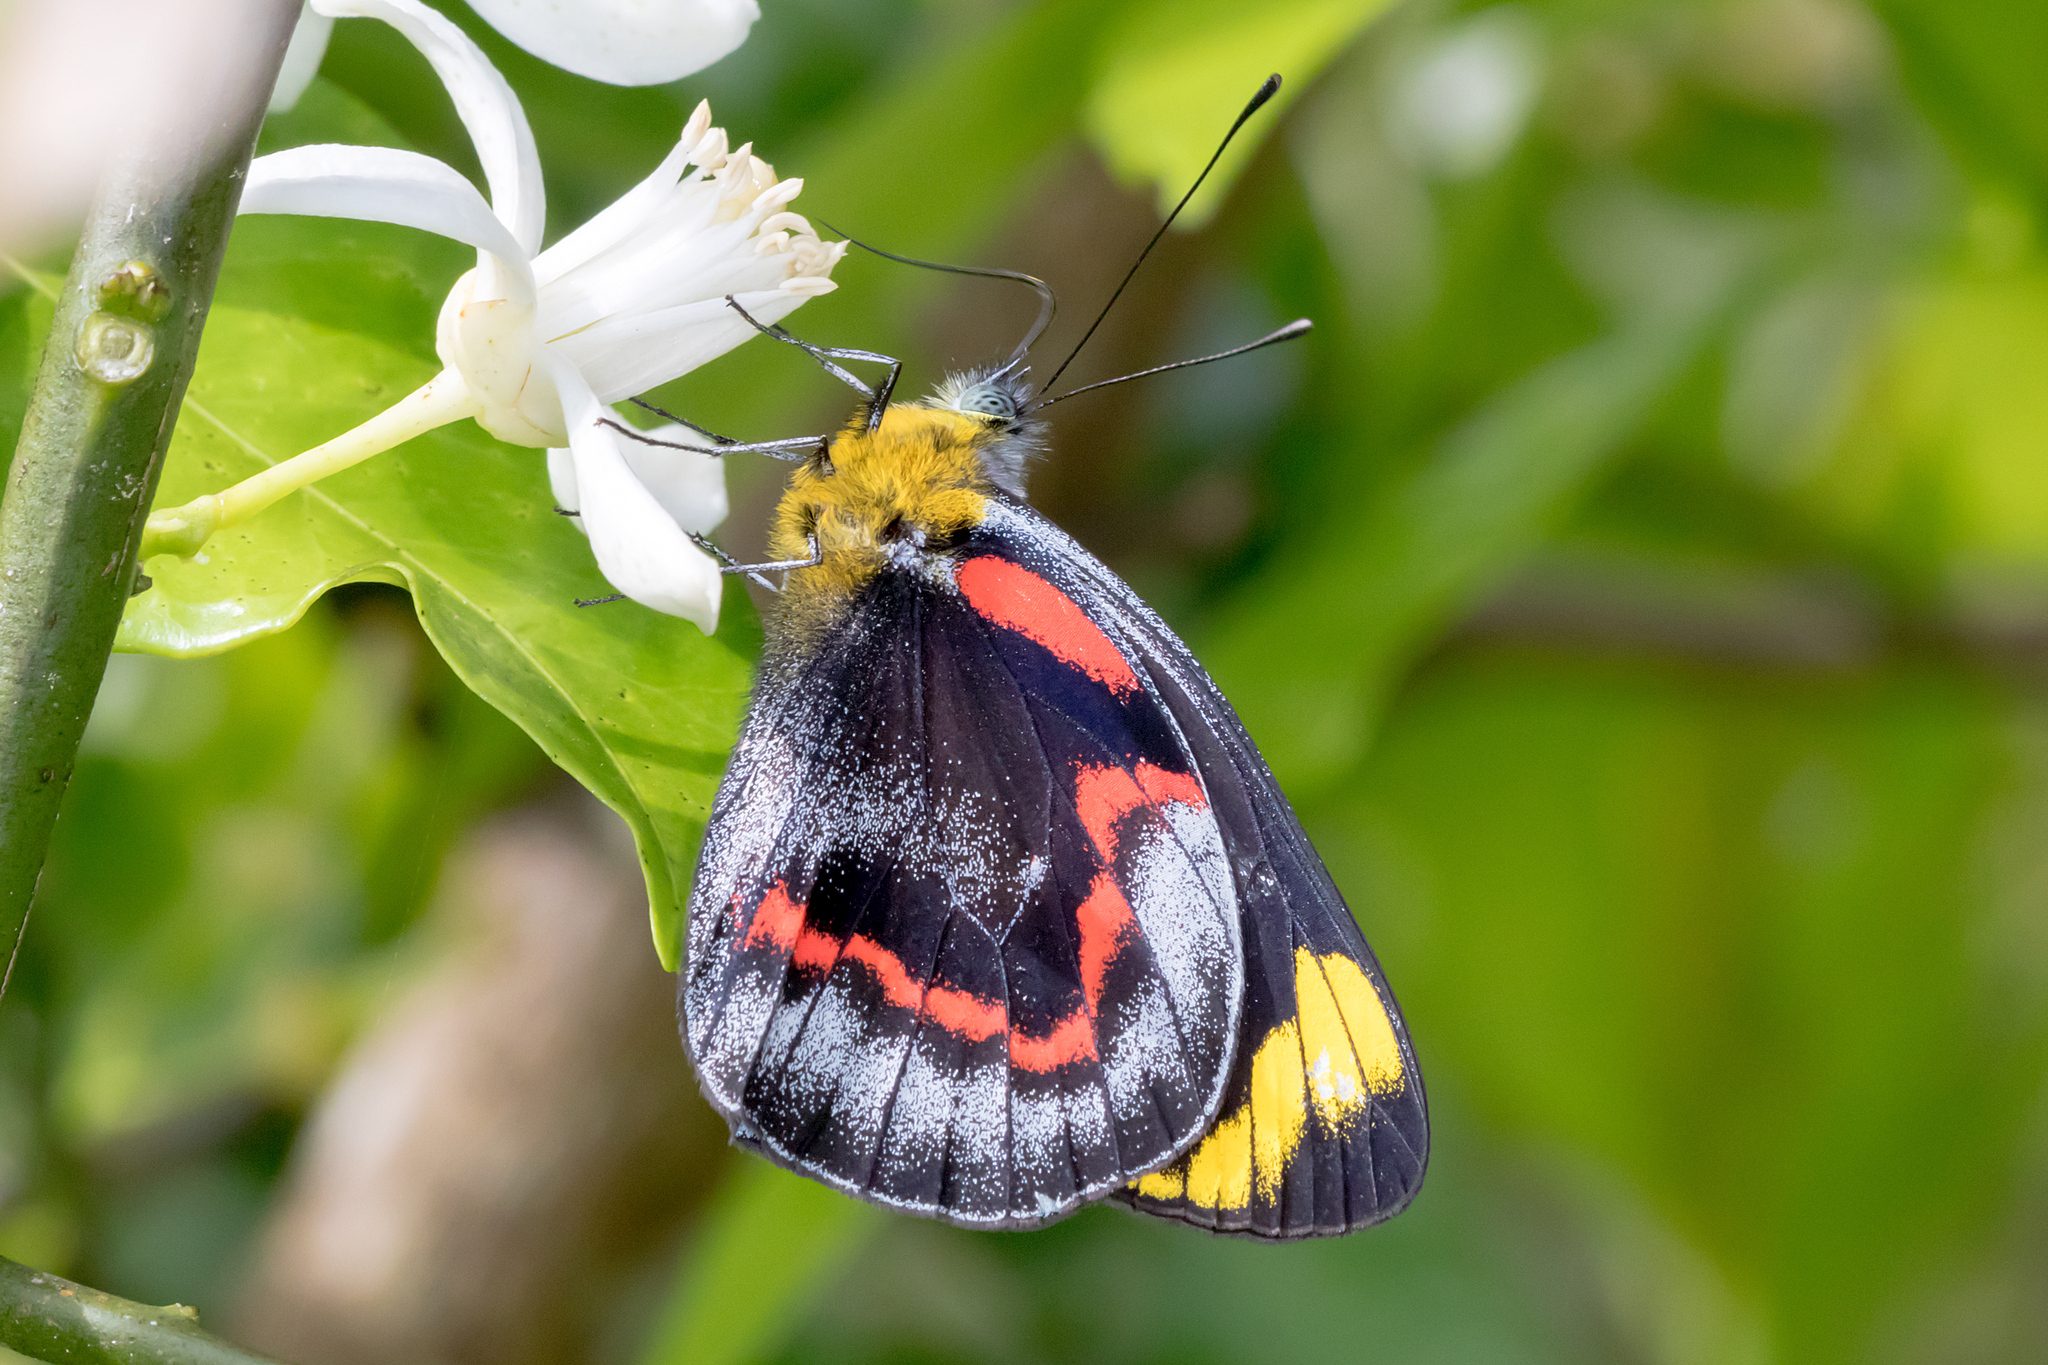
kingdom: Animalia
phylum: Arthropoda
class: Insecta
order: Lepidoptera
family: Pieridae
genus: Delias
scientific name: Delias nigrina
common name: Black jezebel
